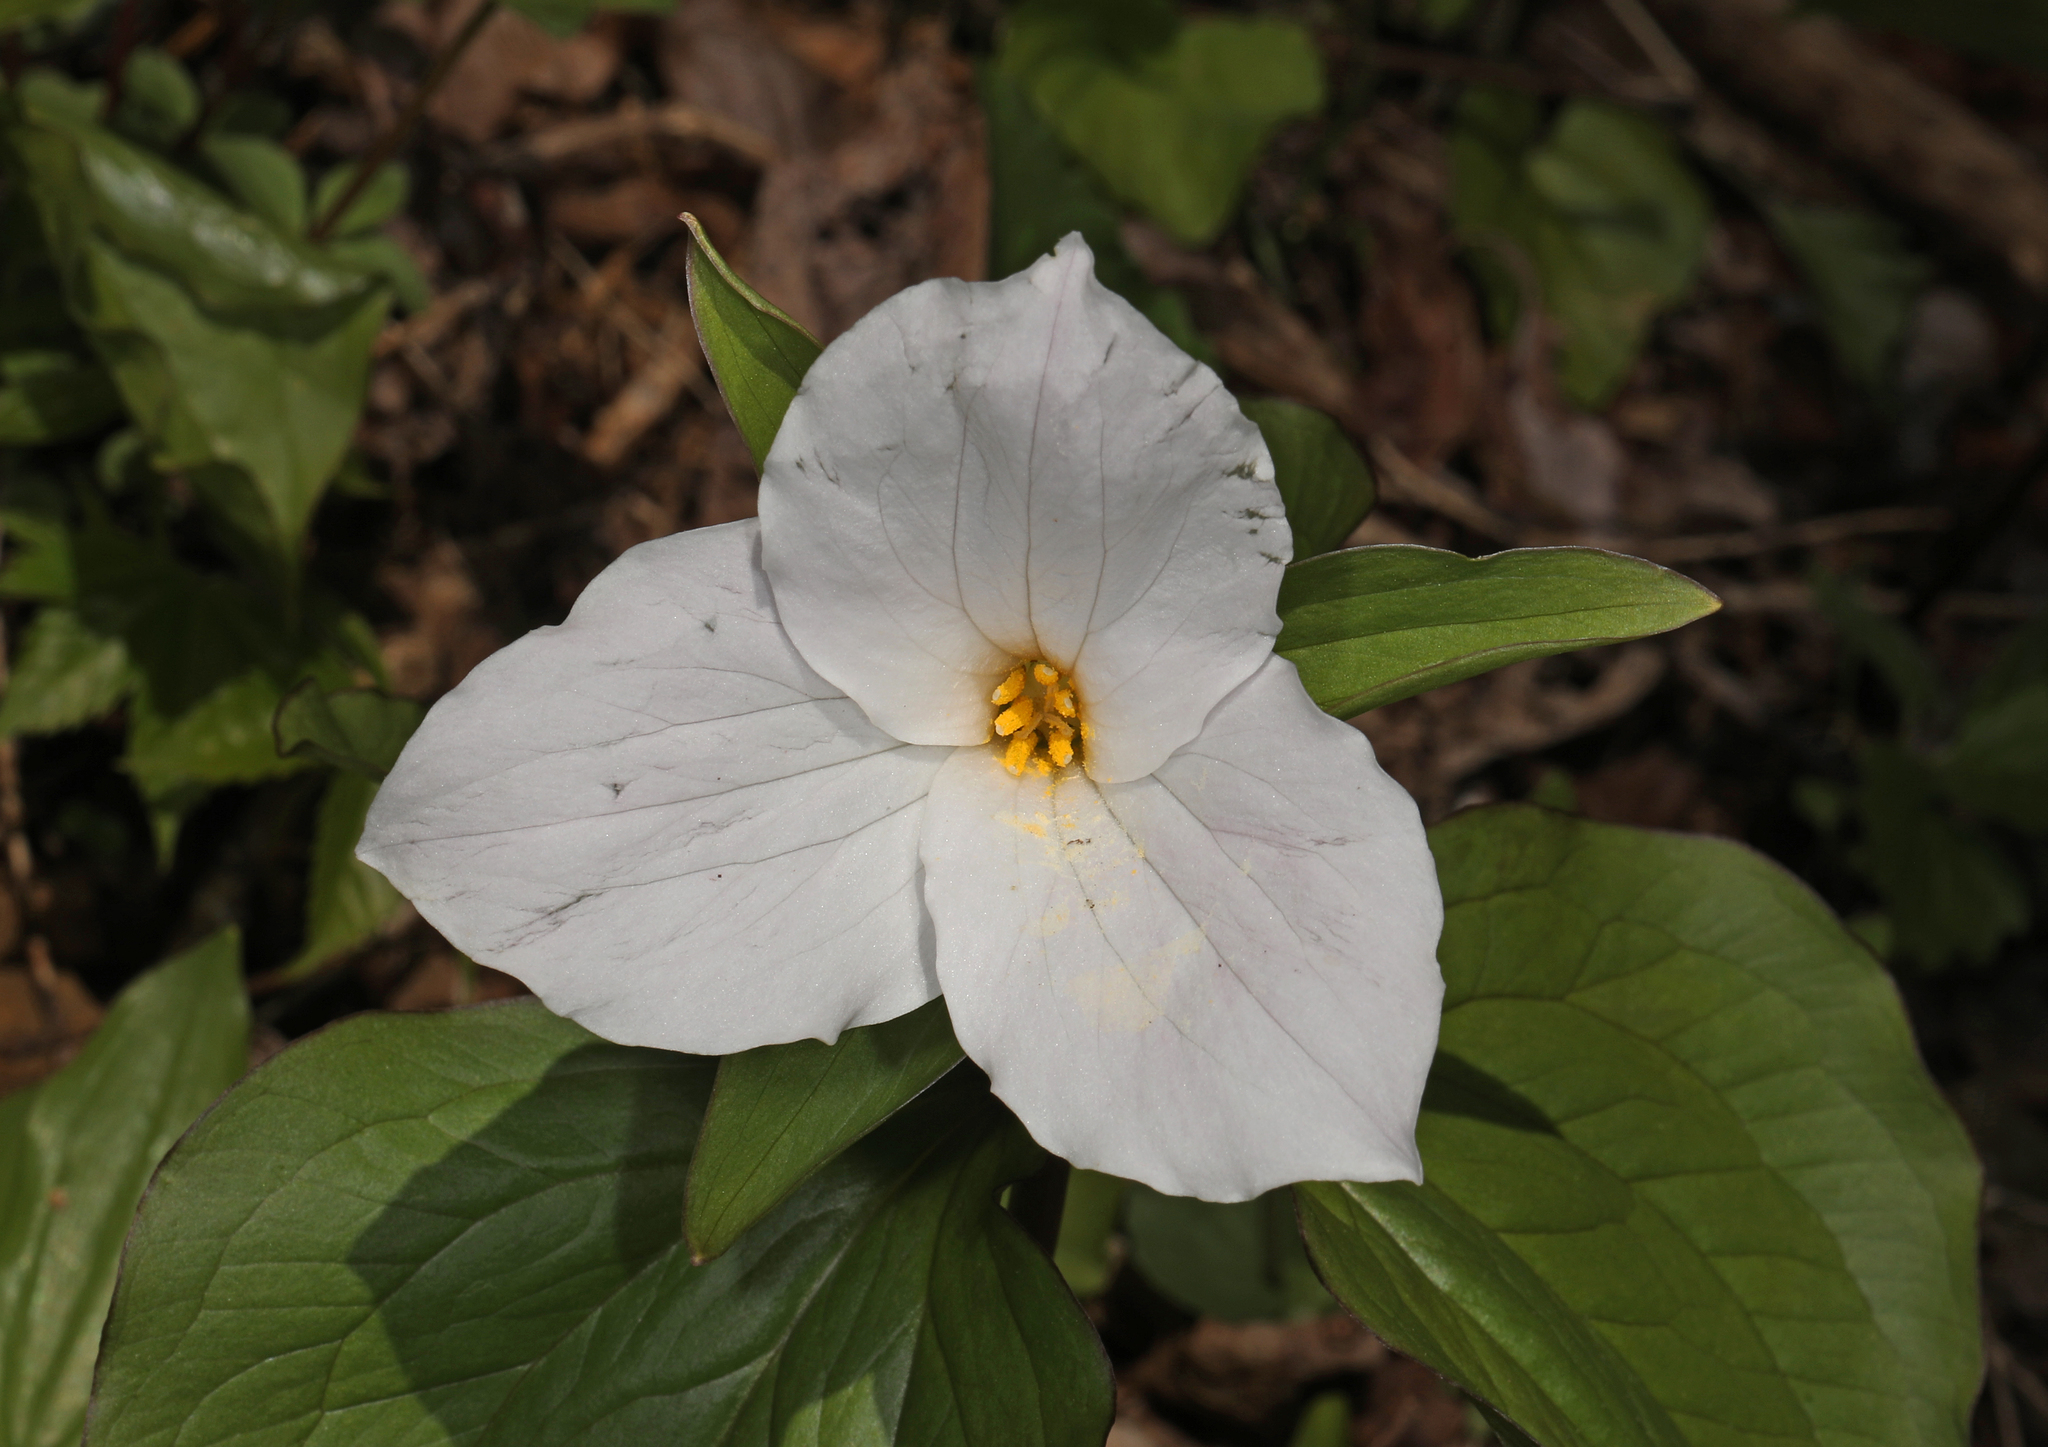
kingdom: Plantae
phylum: Tracheophyta
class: Liliopsida
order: Liliales
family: Melanthiaceae
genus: Trillium
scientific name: Trillium grandiflorum
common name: Great white trillium
